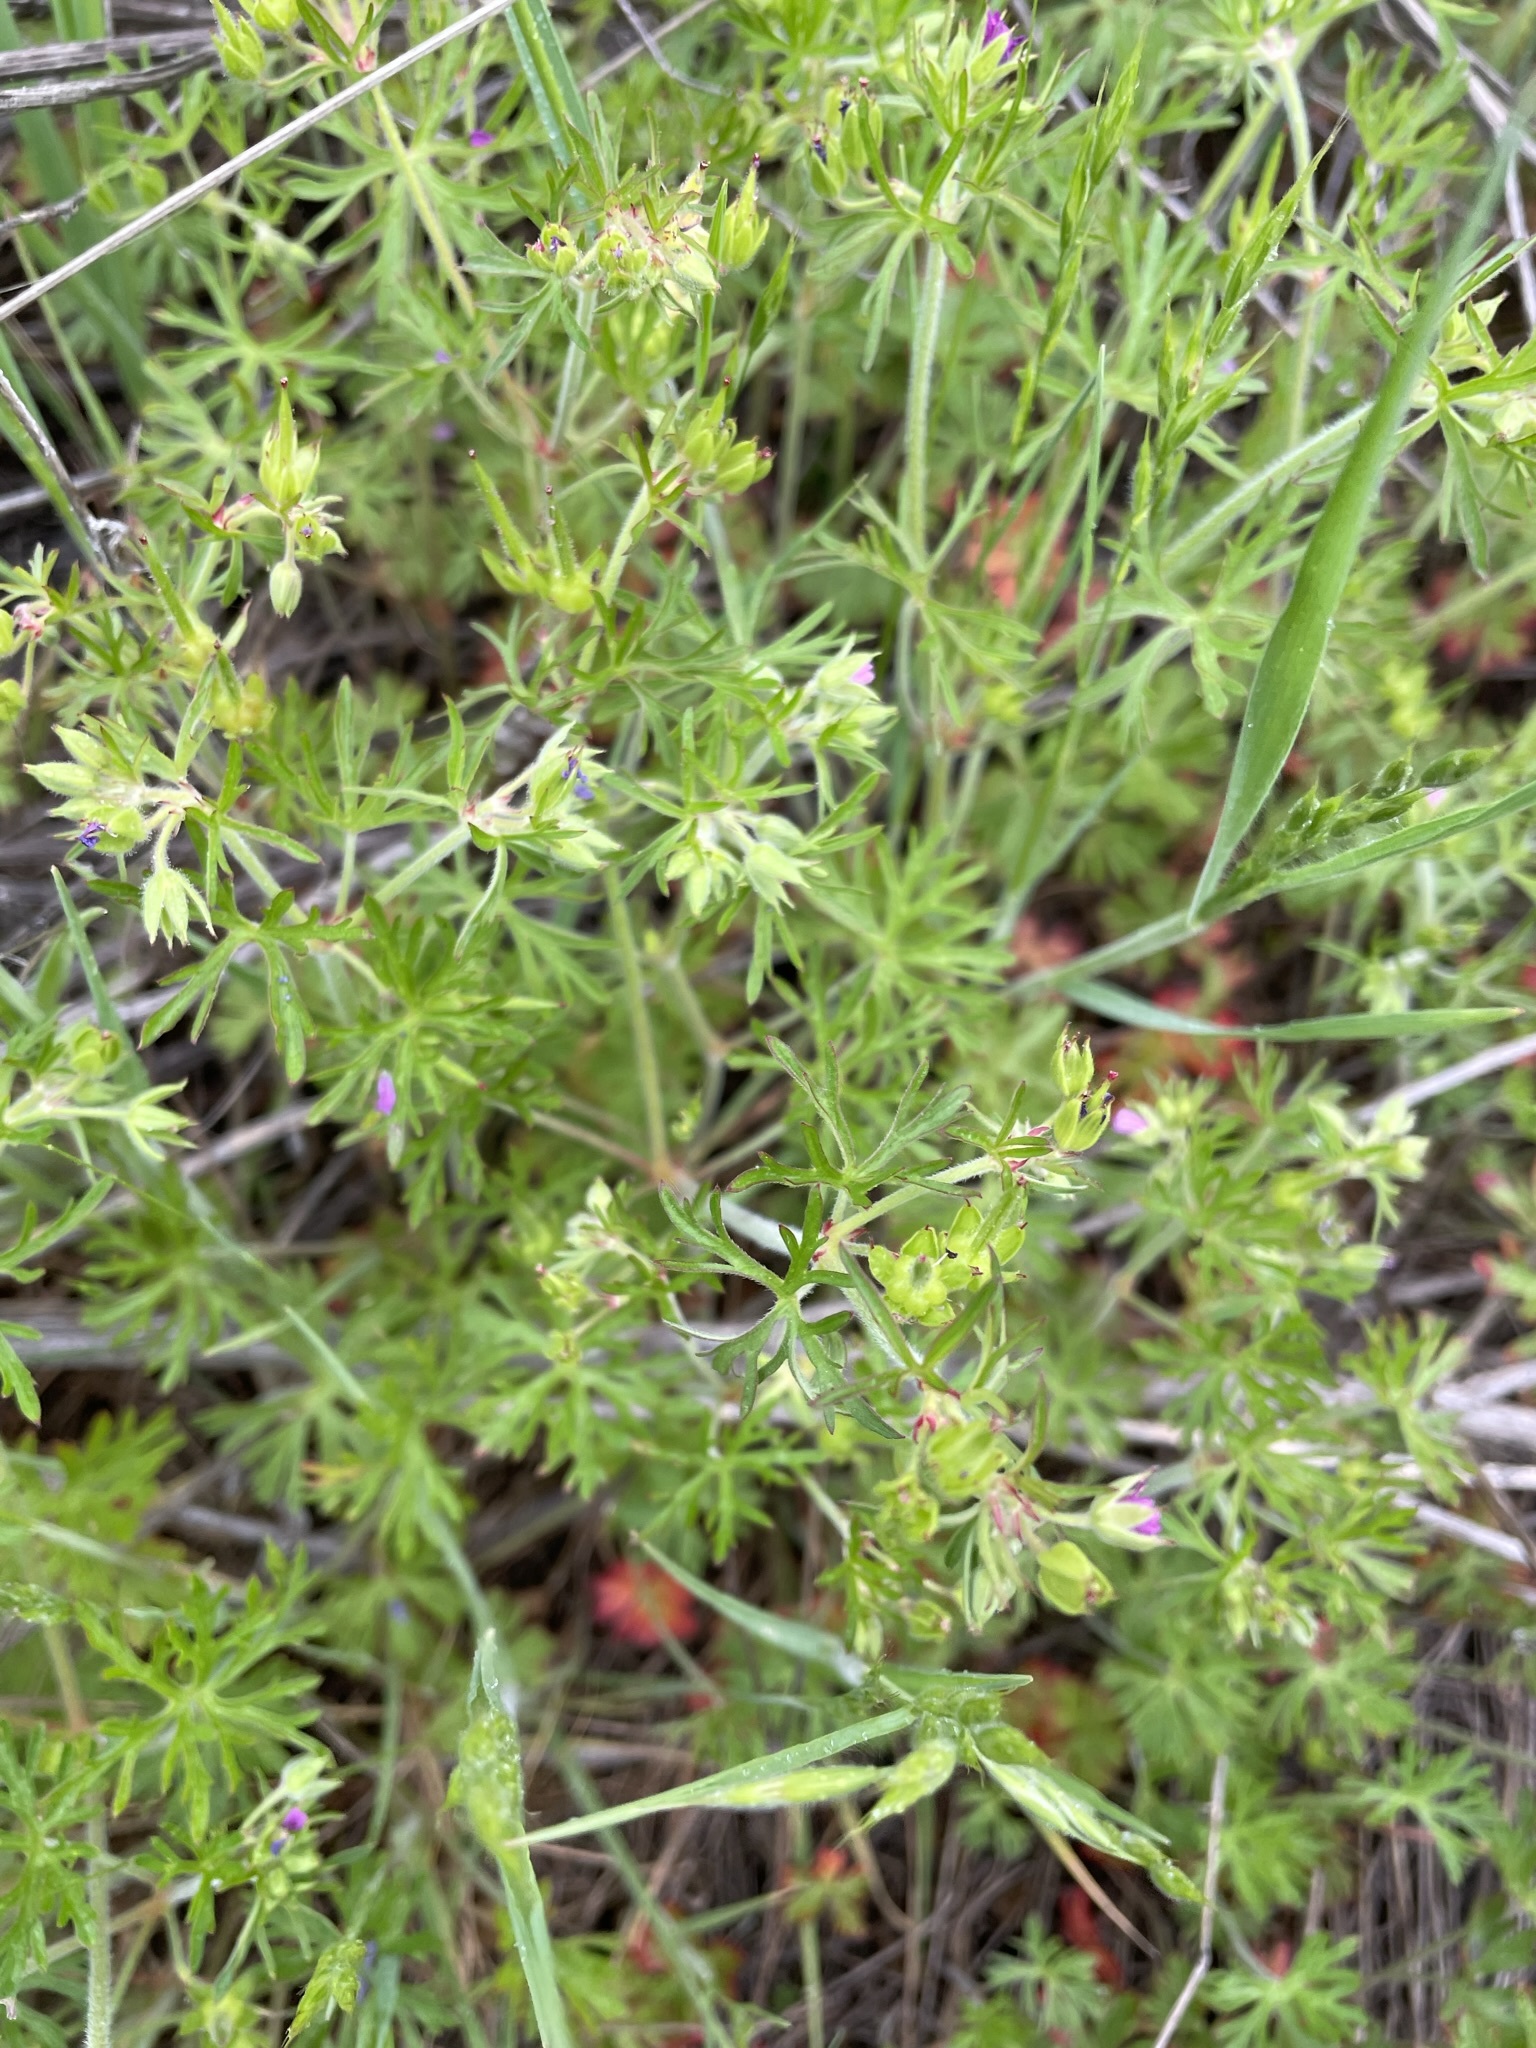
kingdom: Plantae
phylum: Tracheophyta
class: Magnoliopsida
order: Geraniales
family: Geraniaceae
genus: Geranium
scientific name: Geranium dissectum
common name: Cut-leaved crane's-bill
